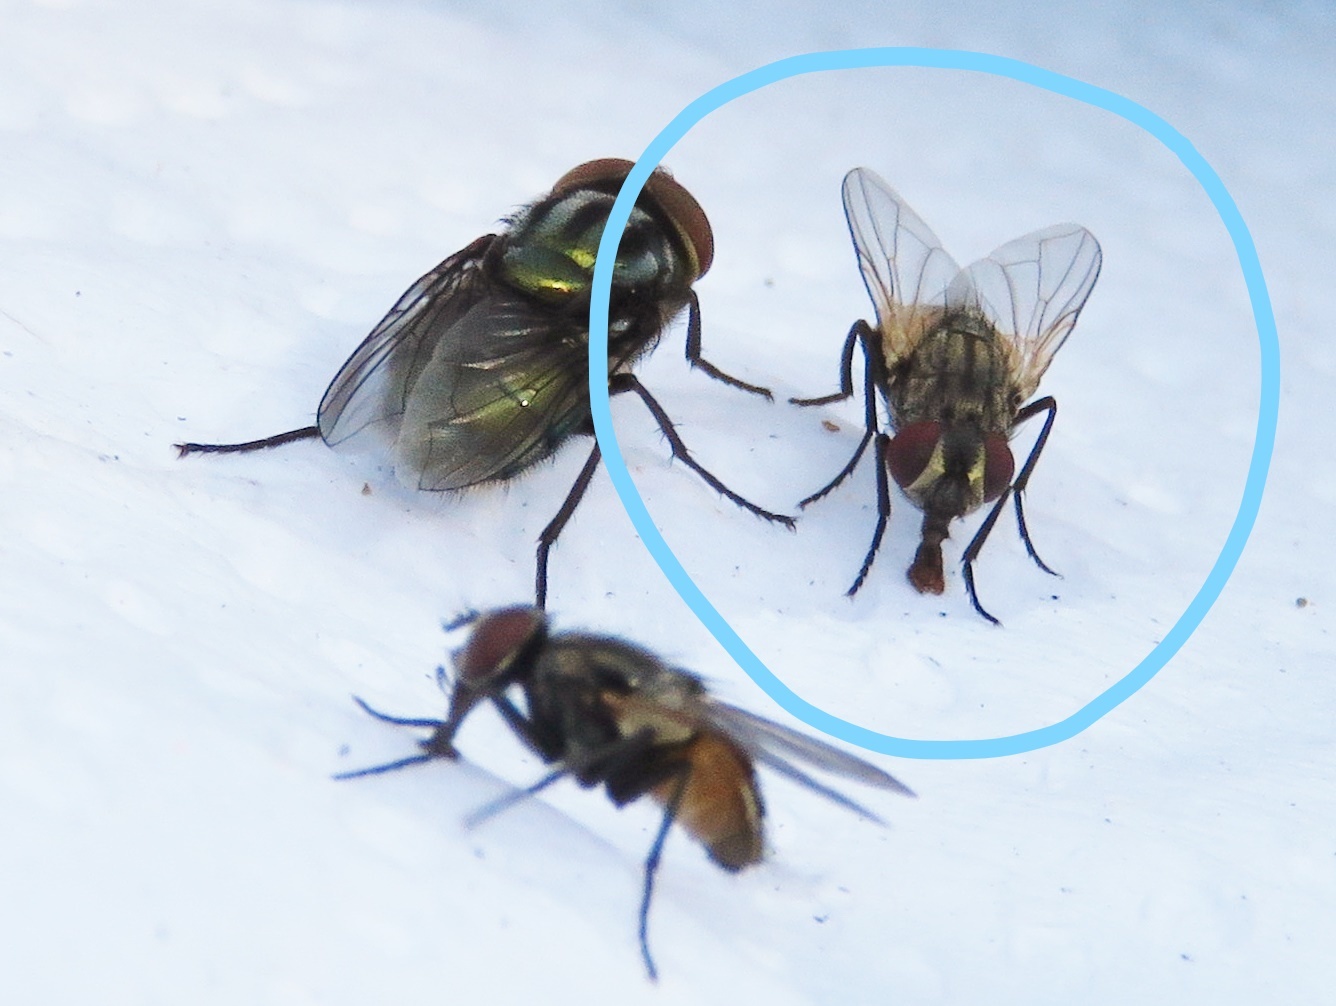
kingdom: Animalia
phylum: Arthropoda
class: Insecta
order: Diptera
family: Muscidae
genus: Musca
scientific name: Musca domestica
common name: House fly
